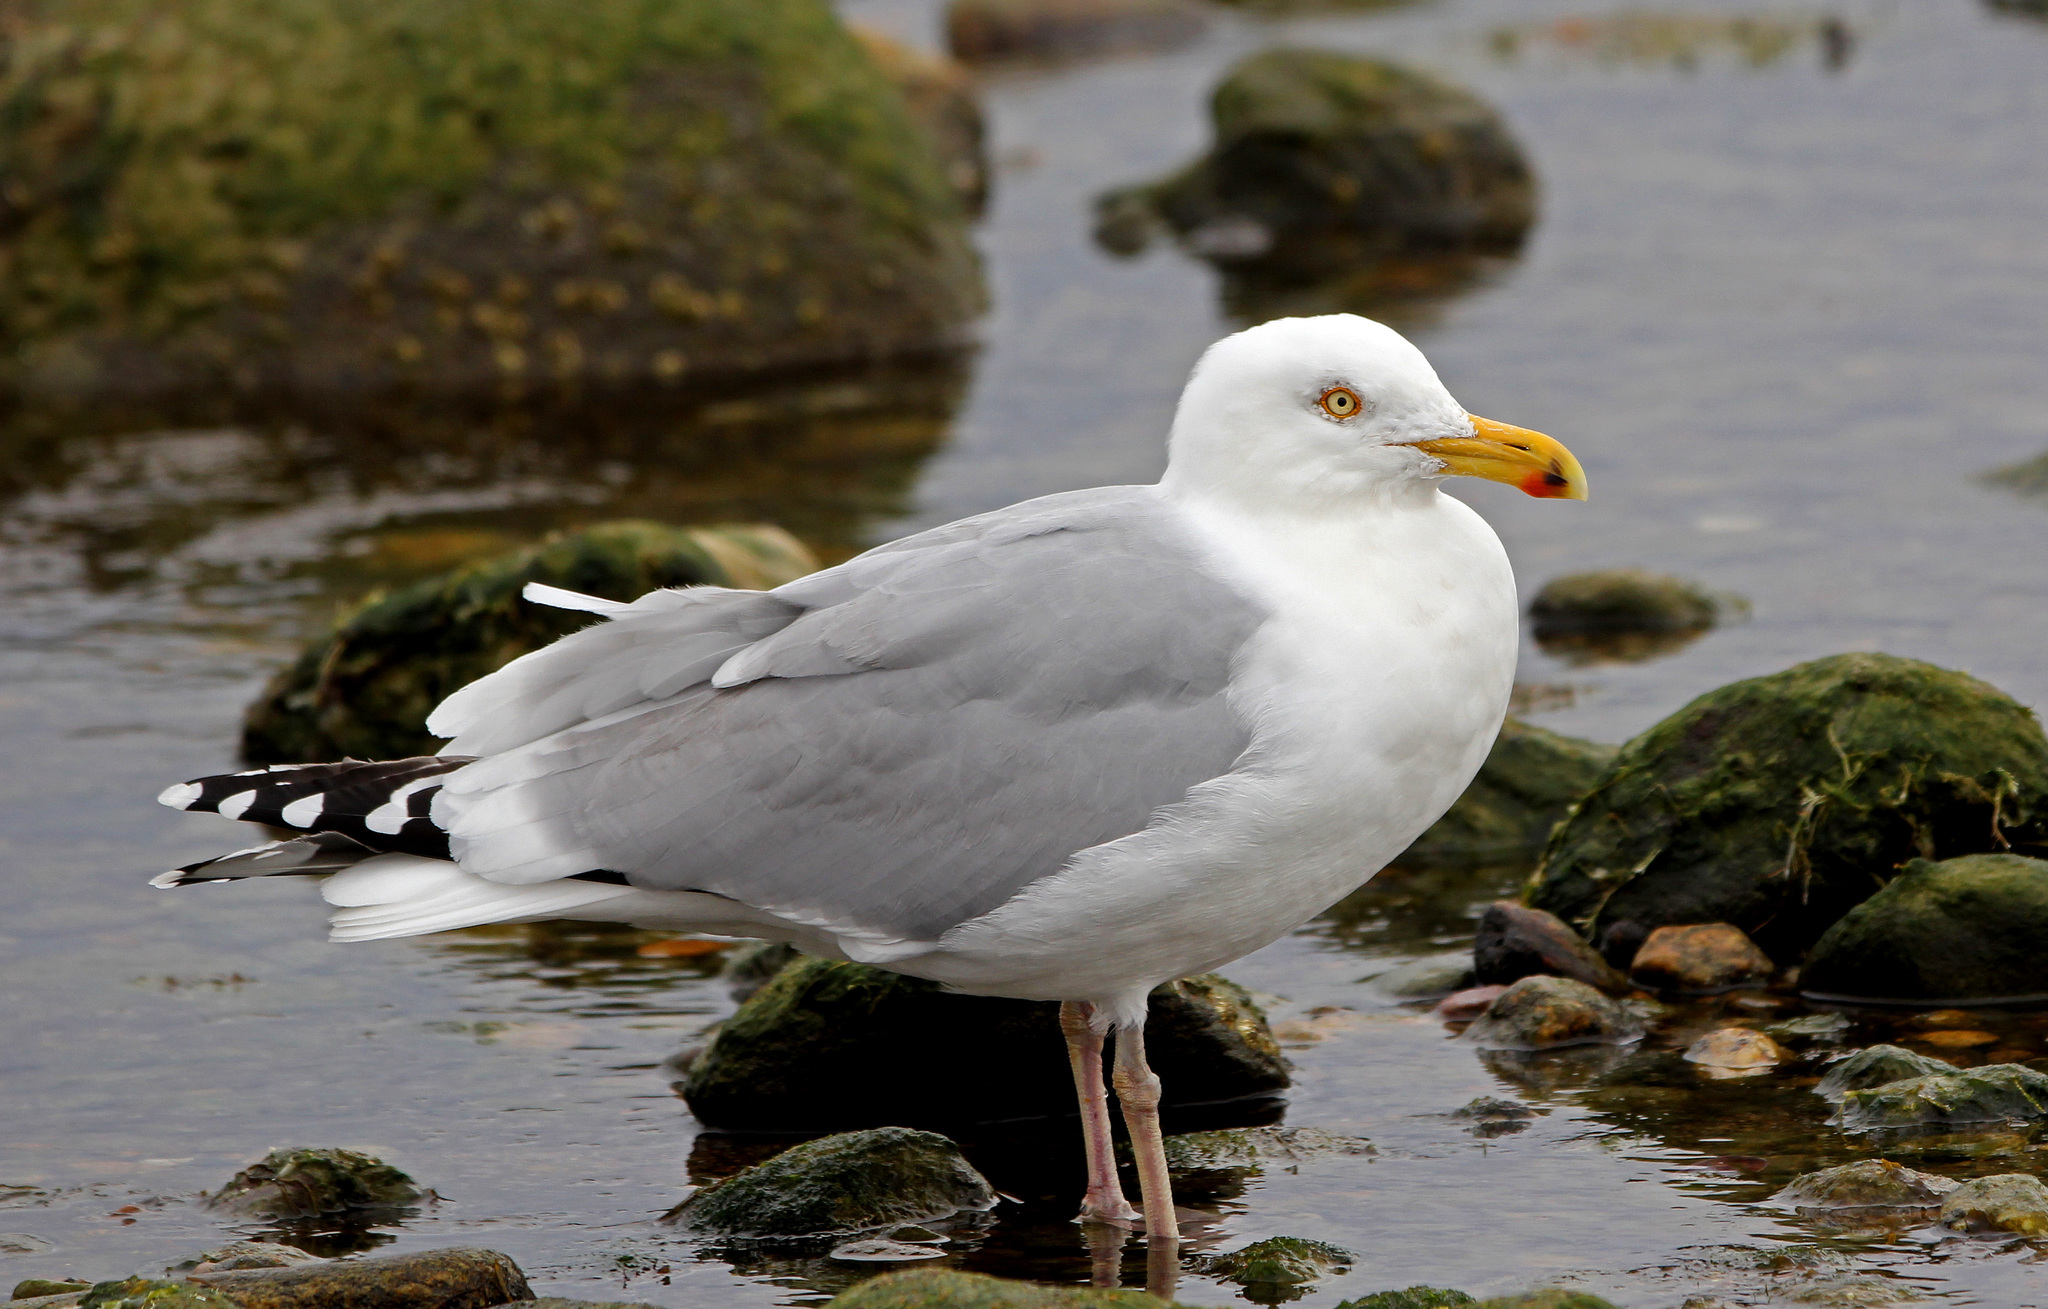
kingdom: Animalia
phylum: Chordata
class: Aves
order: Charadriiformes
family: Laridae
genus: Larus
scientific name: Larus argentatus
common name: Herring gull
